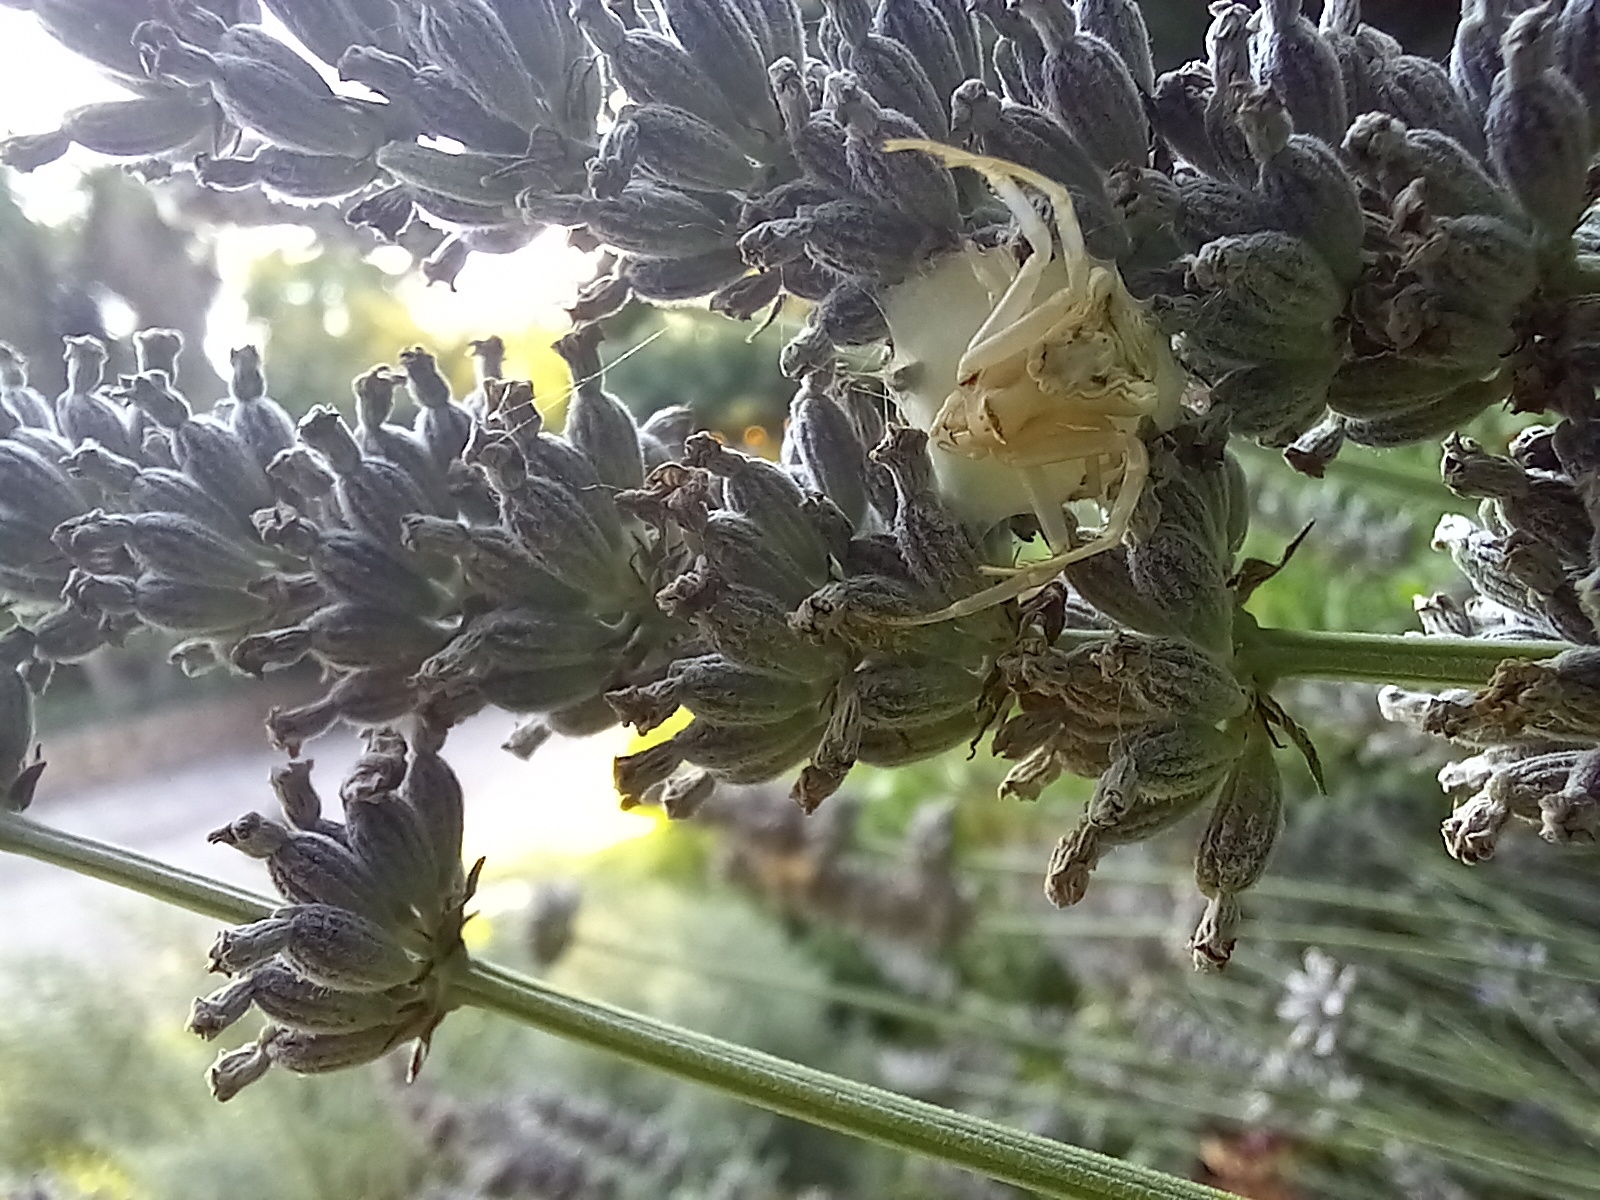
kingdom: Animalia
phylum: Arthropoda
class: Arachnida
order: Araneae
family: Thomisidae
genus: Thomisus
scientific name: Thomisus onustus
